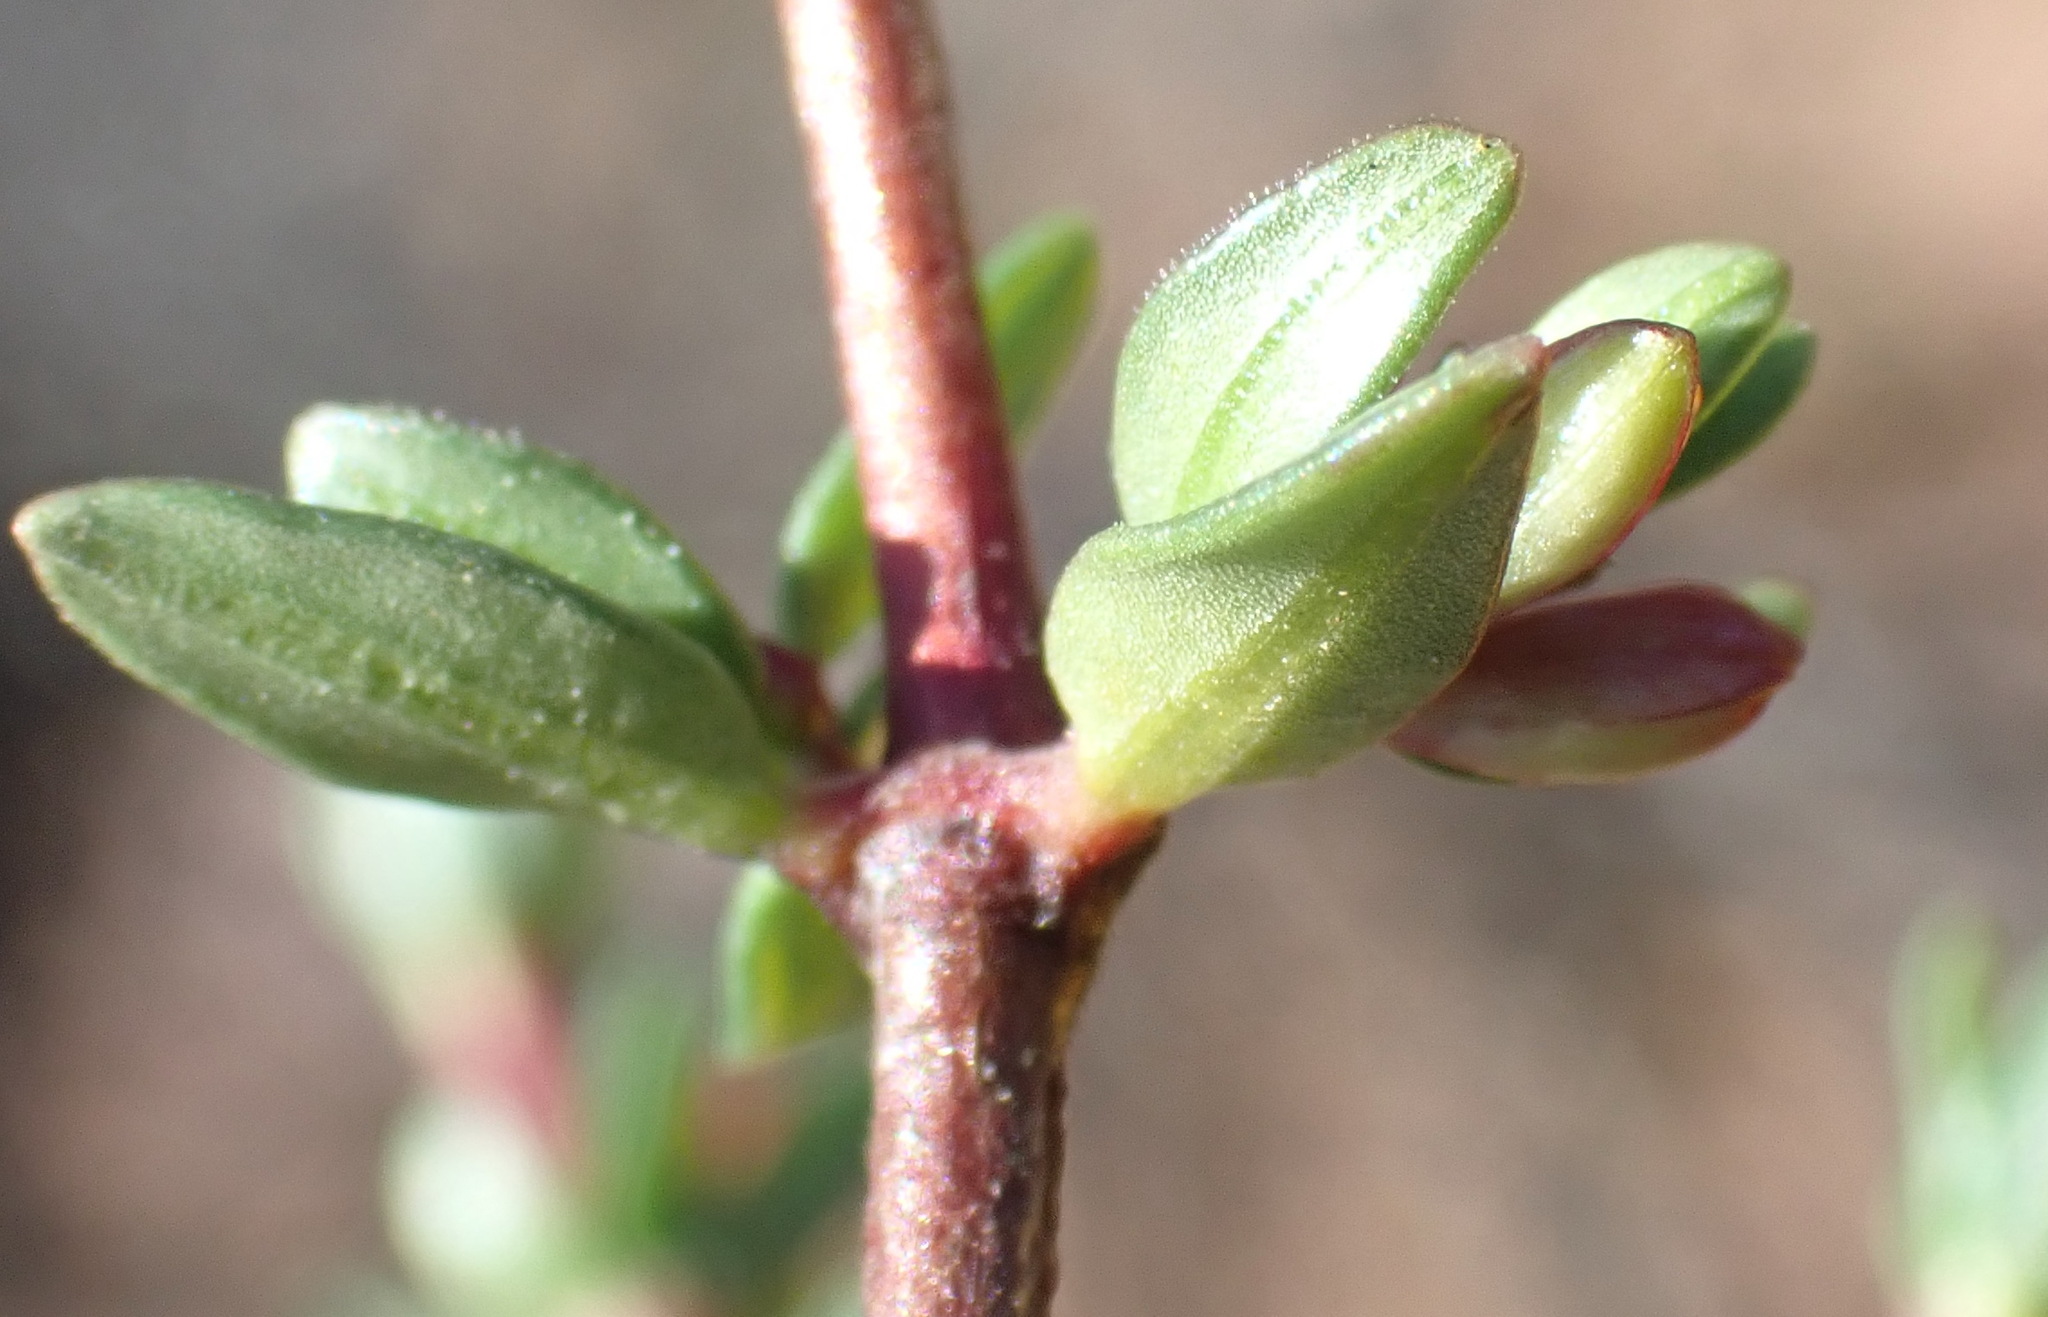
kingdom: Plantae
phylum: Tracheophyta
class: Magnoliopsida
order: Gentianales
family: Rubiaceae
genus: Anthospermum
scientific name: Anthospermum spathulatum
